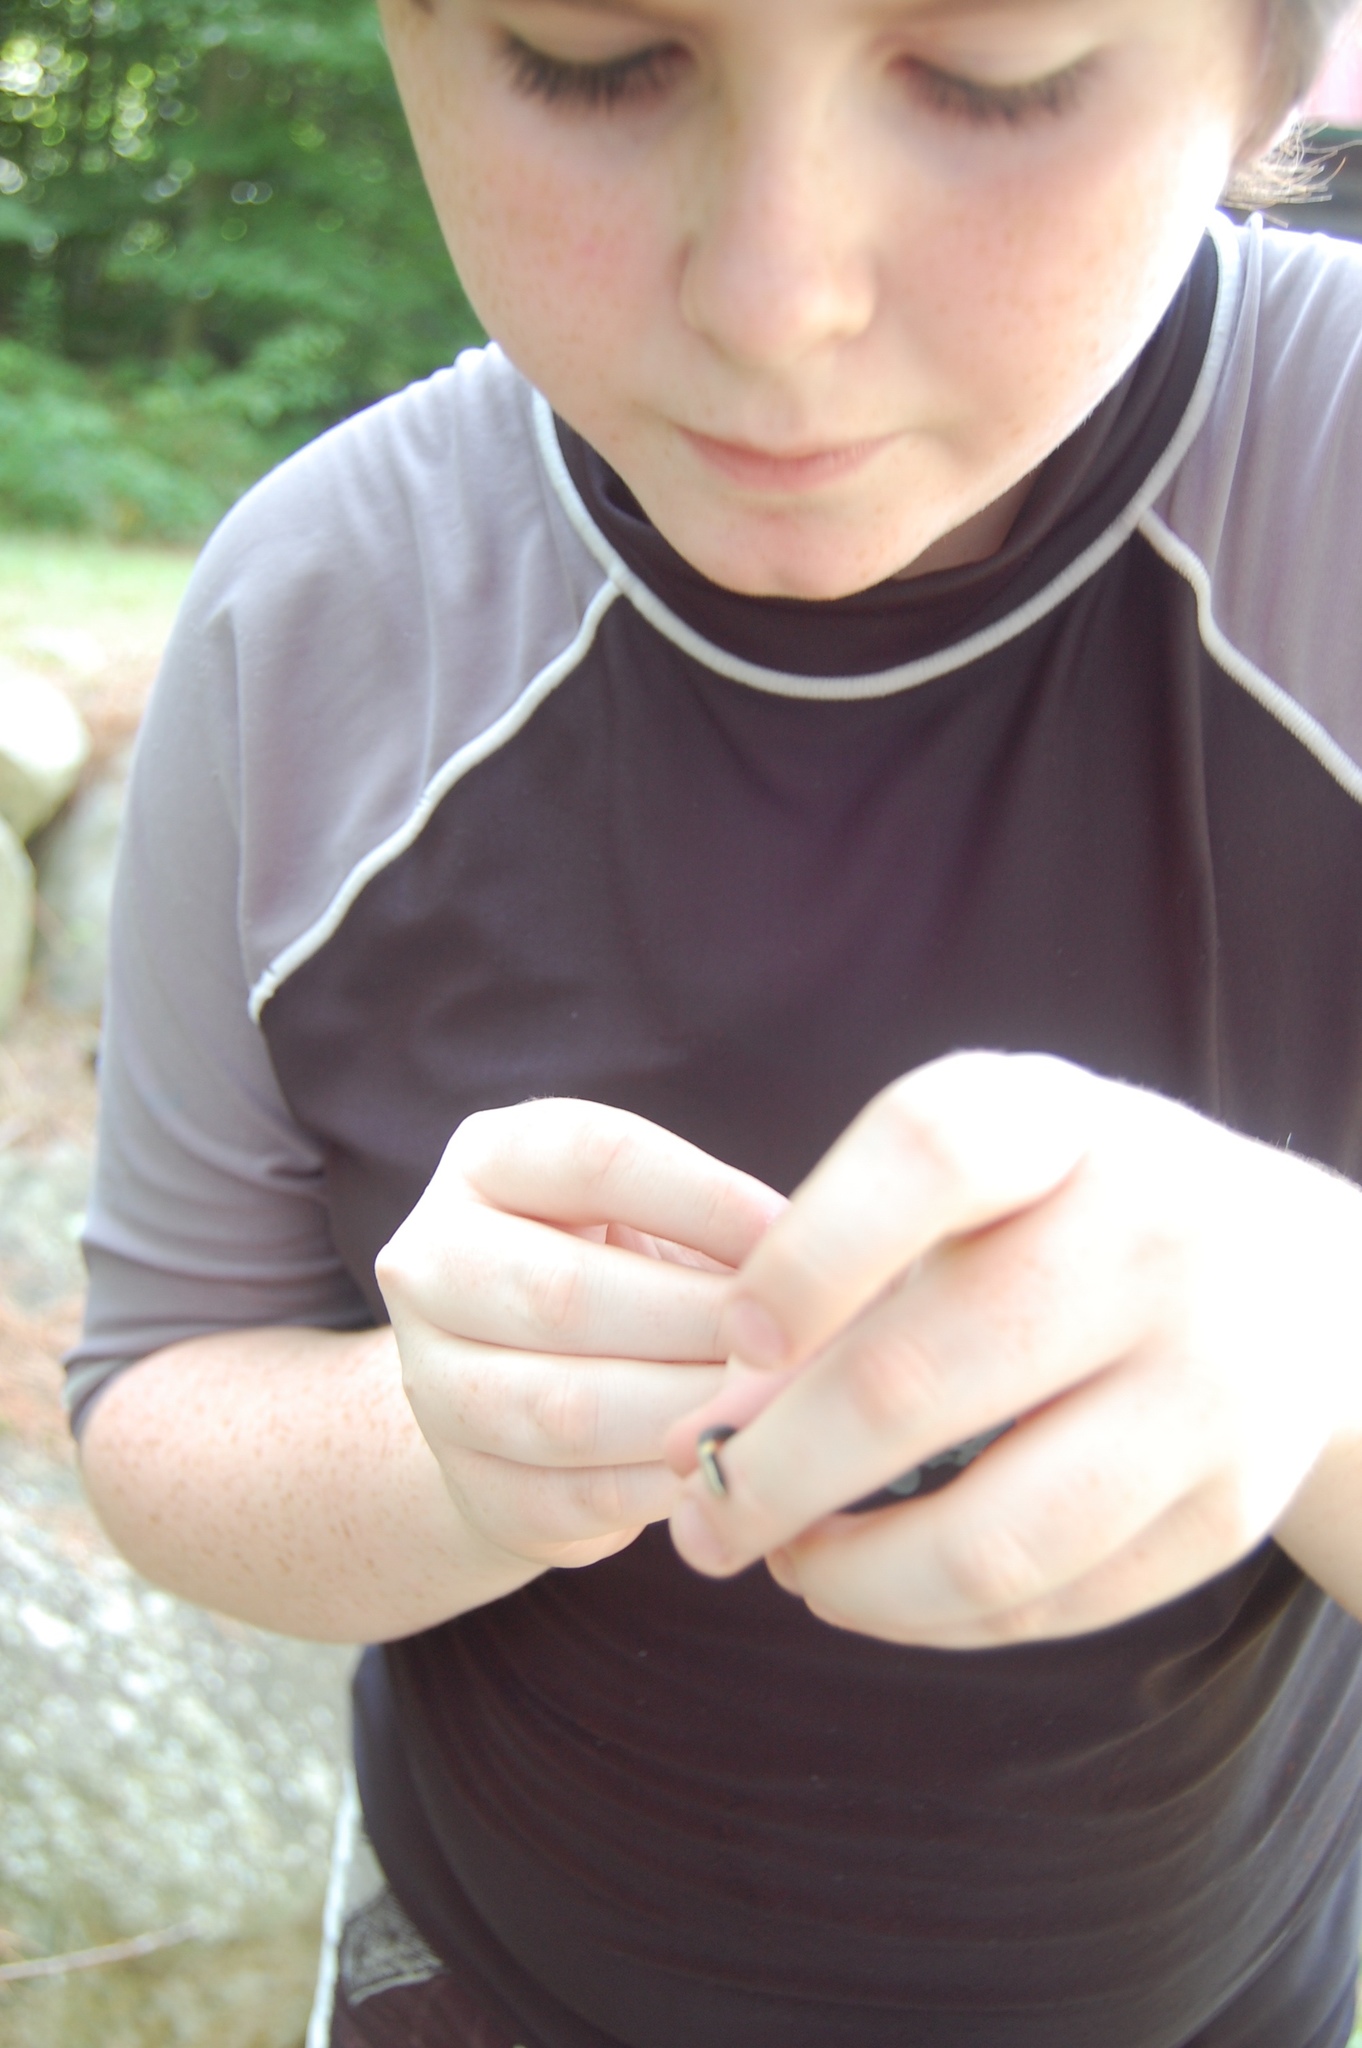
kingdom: Animalia
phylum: Chordata
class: Squamata
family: Colubridae
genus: Diadophis
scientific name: Diadophis punctatus
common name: Ringneck snake
